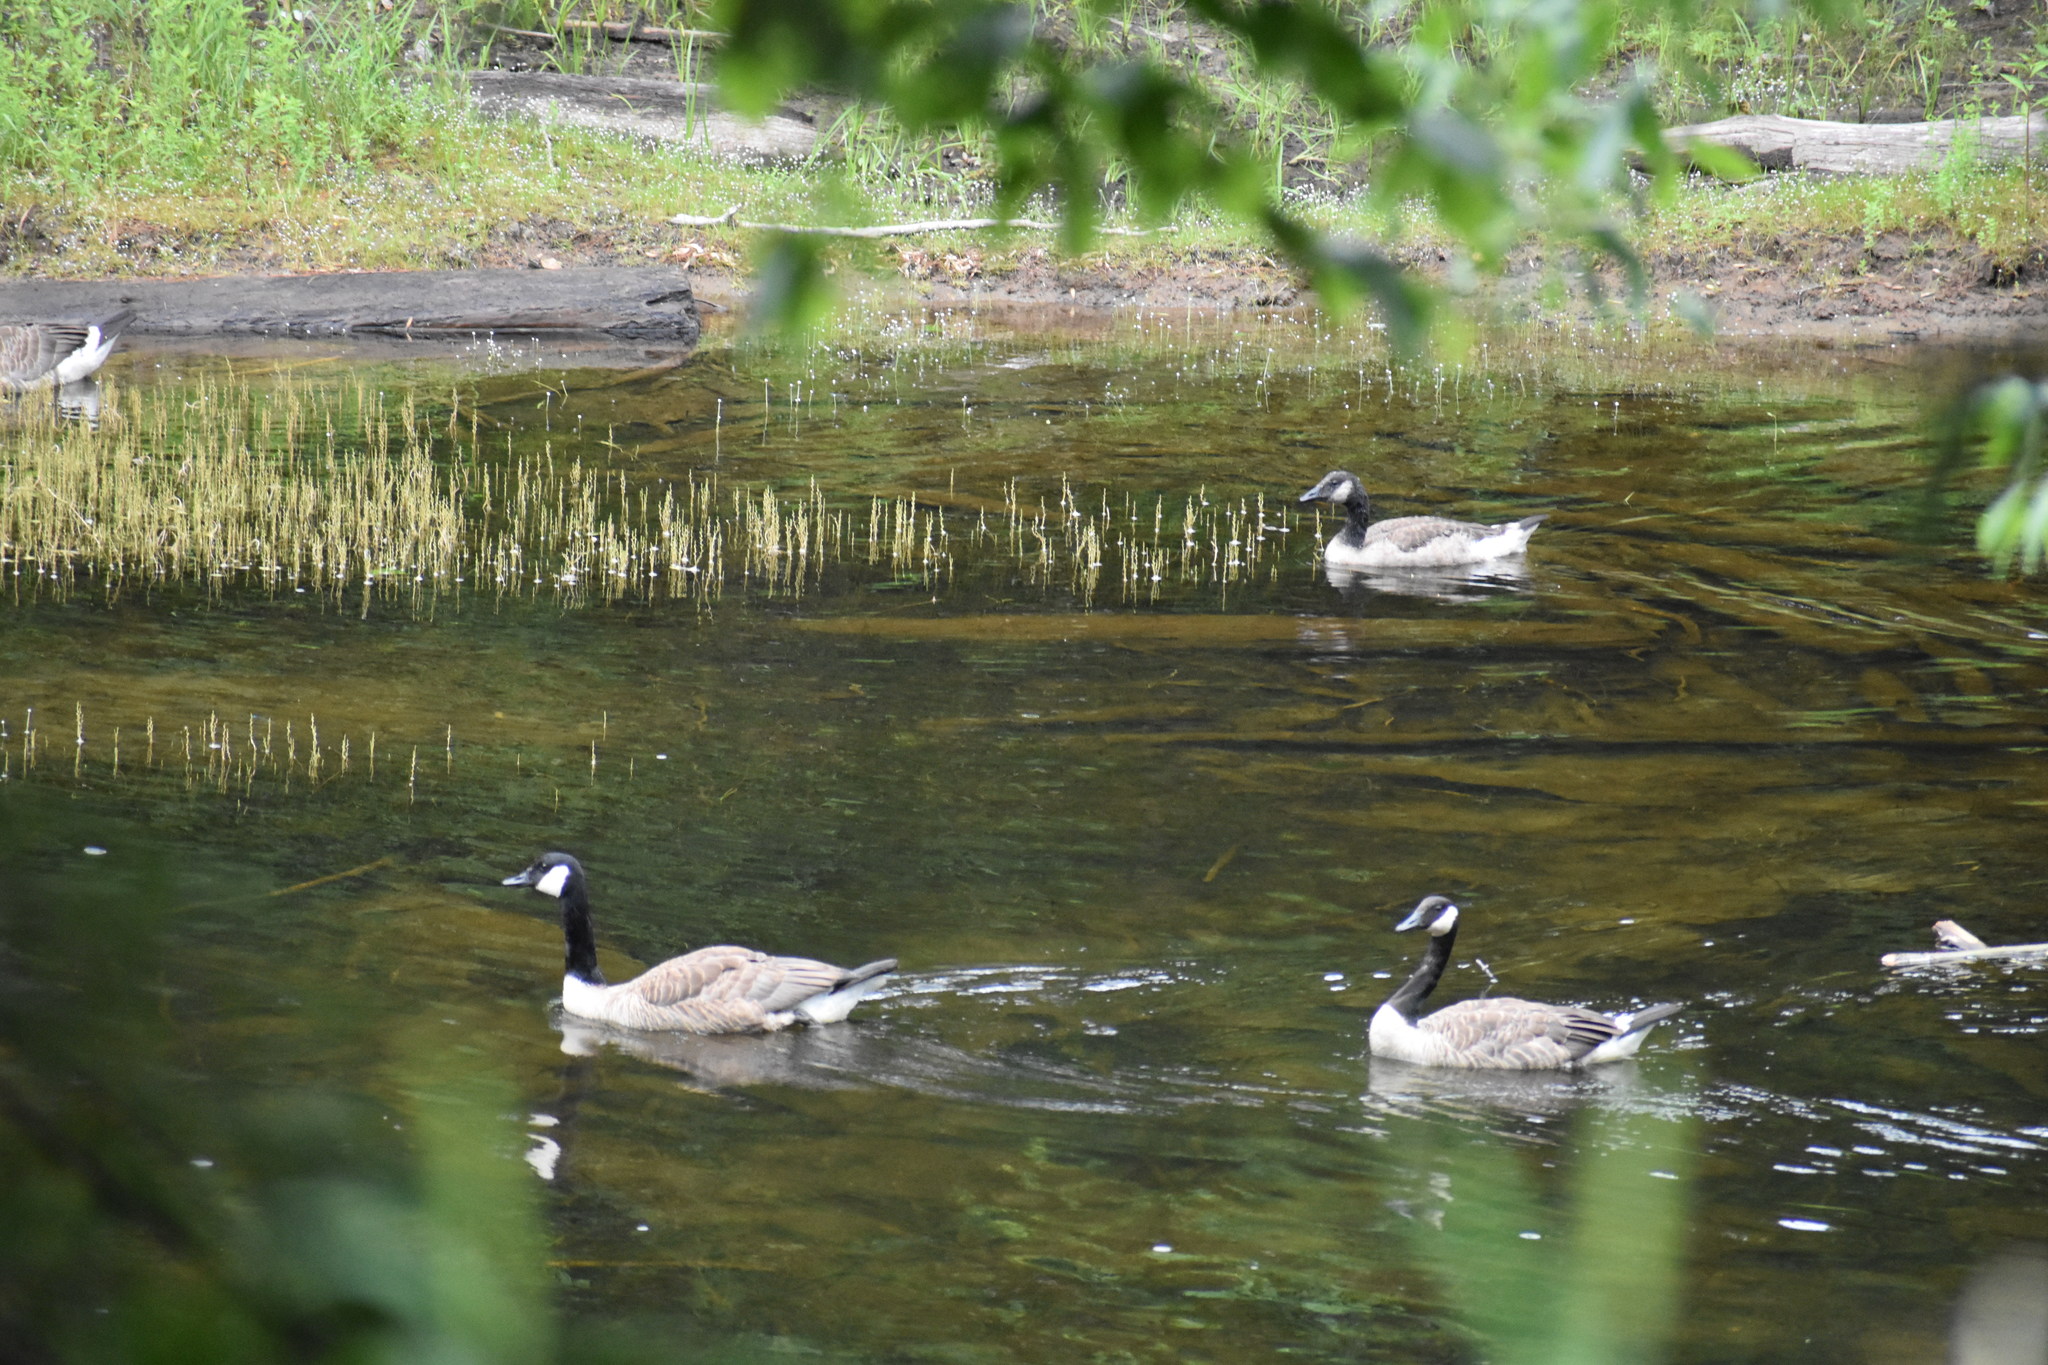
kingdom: Animalia
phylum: Chordata
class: Aves
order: Anseriformes
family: Anatidae
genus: Branta
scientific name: Branta canadensis
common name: Canada goose
